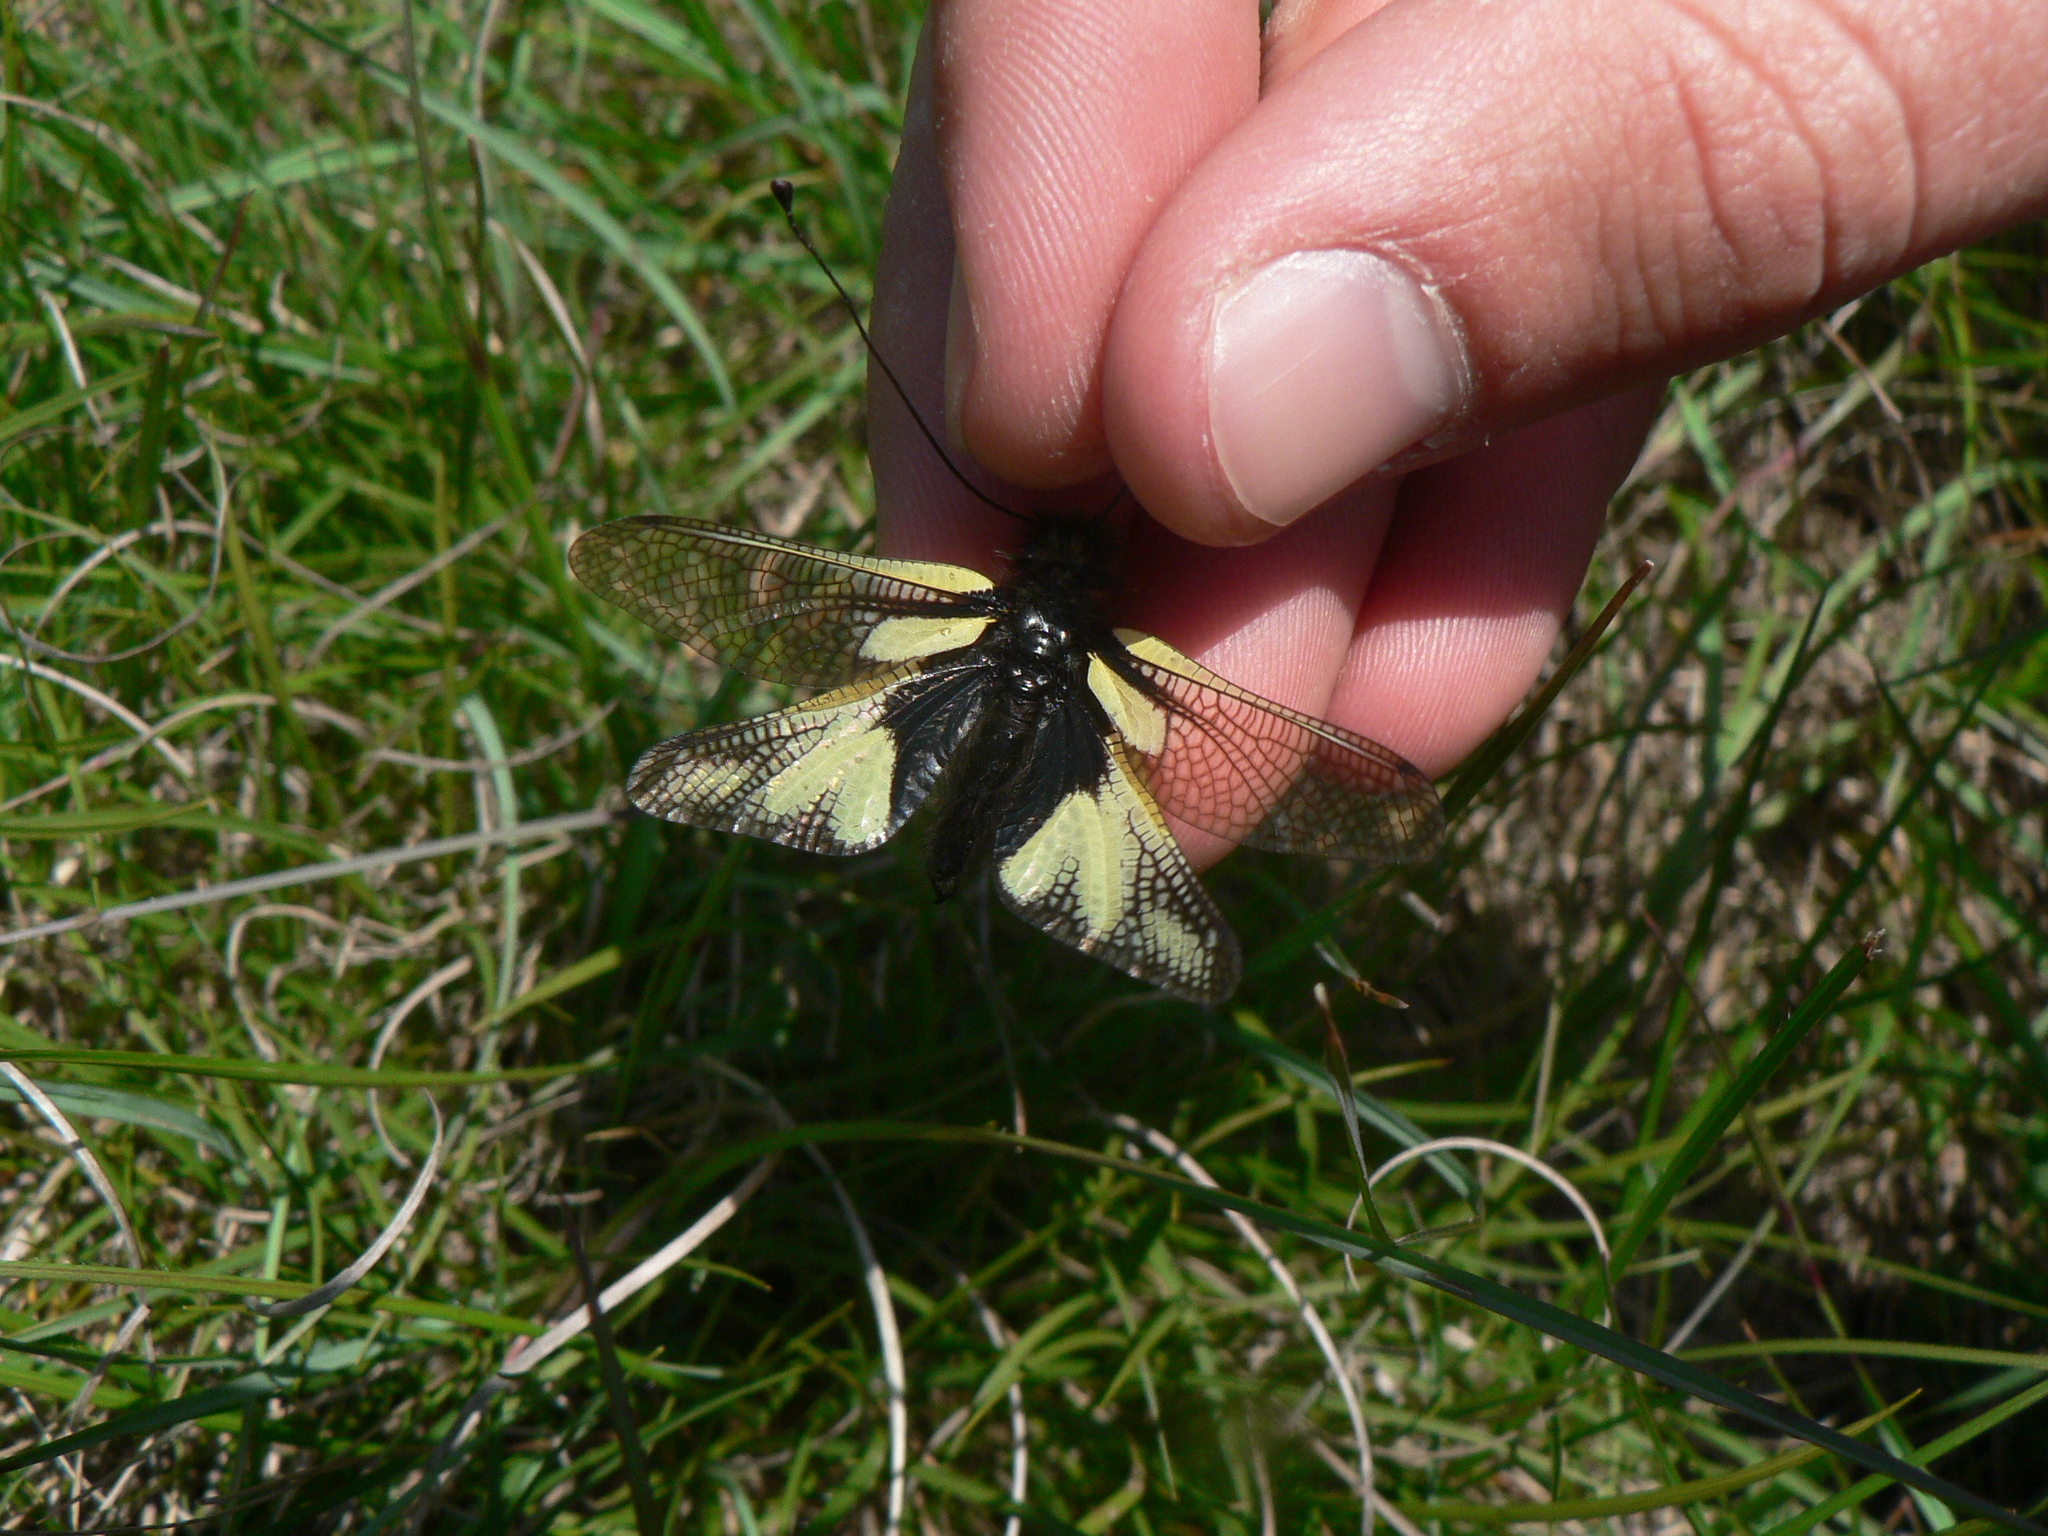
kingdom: Animalia
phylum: Arthropoda
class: Insecta
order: Neuroptera
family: Ascalaphidae
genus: Libelloides
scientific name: Libelloides coccajus
